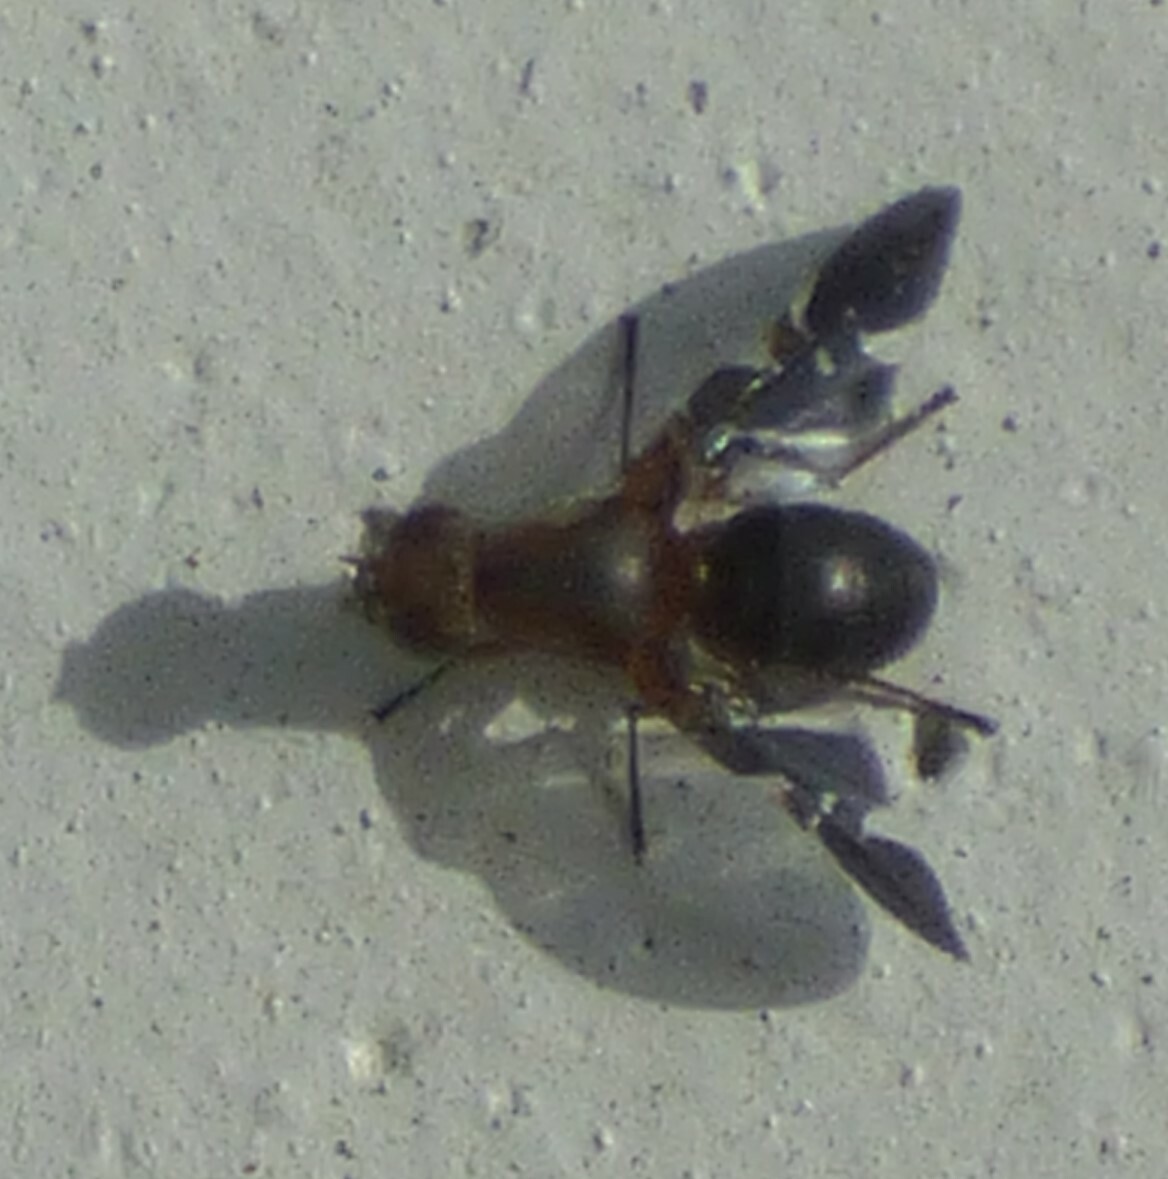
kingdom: Animalia
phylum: Arthropoda
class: Insecta
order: Diptera
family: Ulidiidae
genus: Delphinia
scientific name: Delphinia picta
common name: Common picture-winged fly
